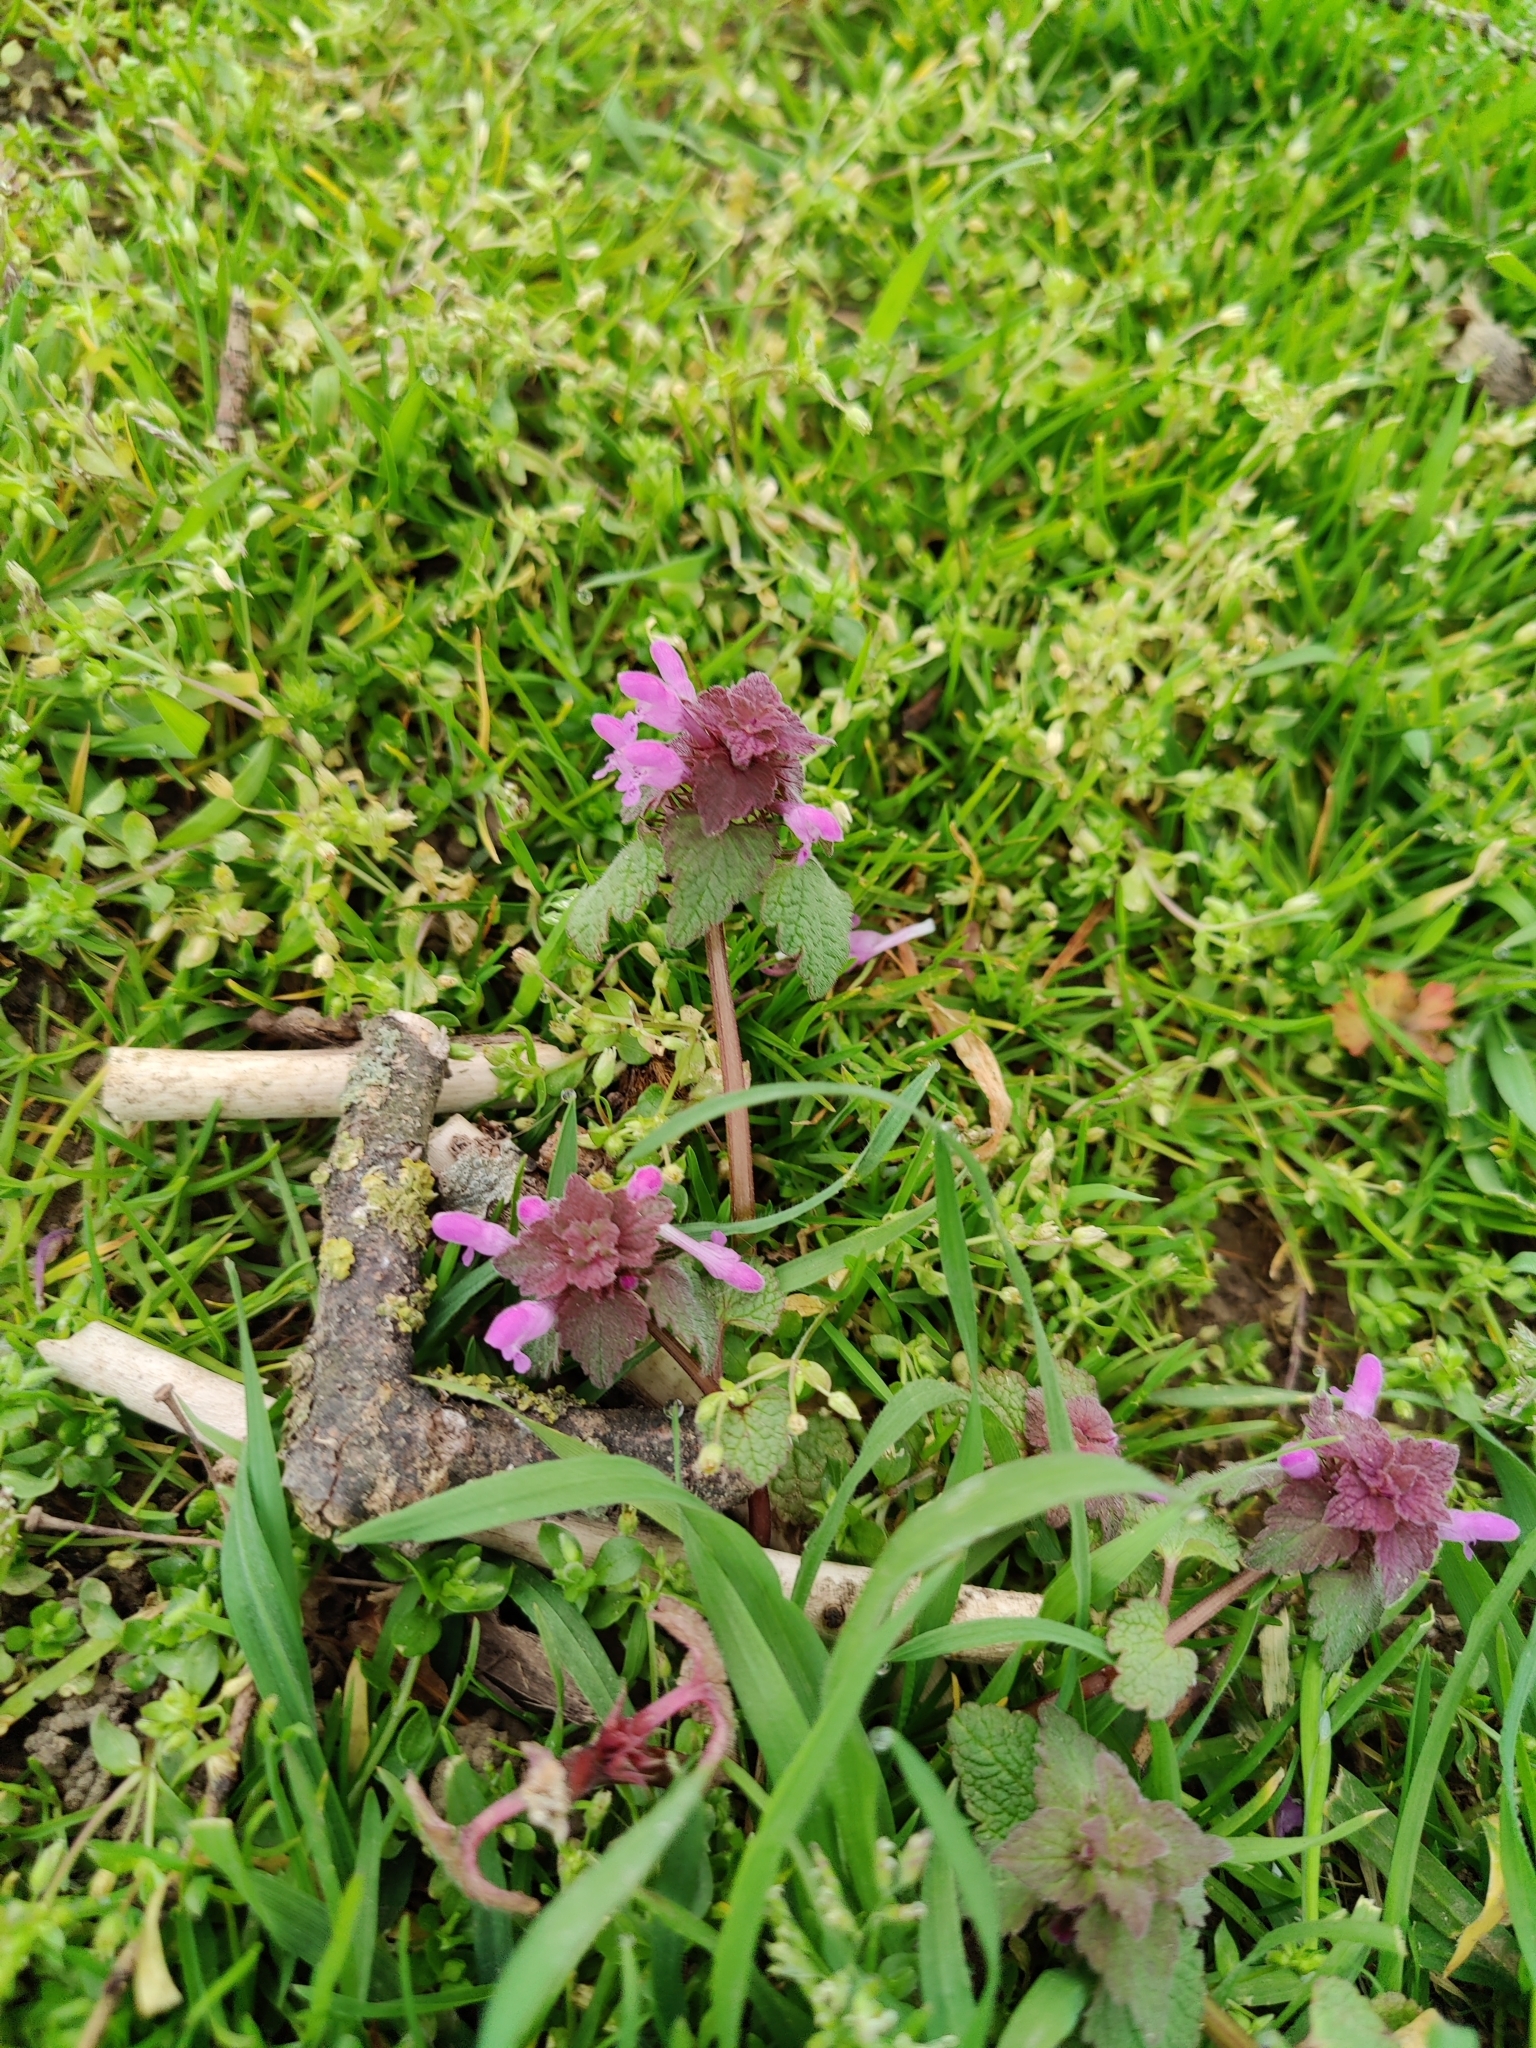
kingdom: Plantae
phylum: Tracheophyta
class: Magnoliopsida
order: Lamiales
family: Lamiaceae
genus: Lamium
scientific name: Lamium purpureum
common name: Red dead-nettle
